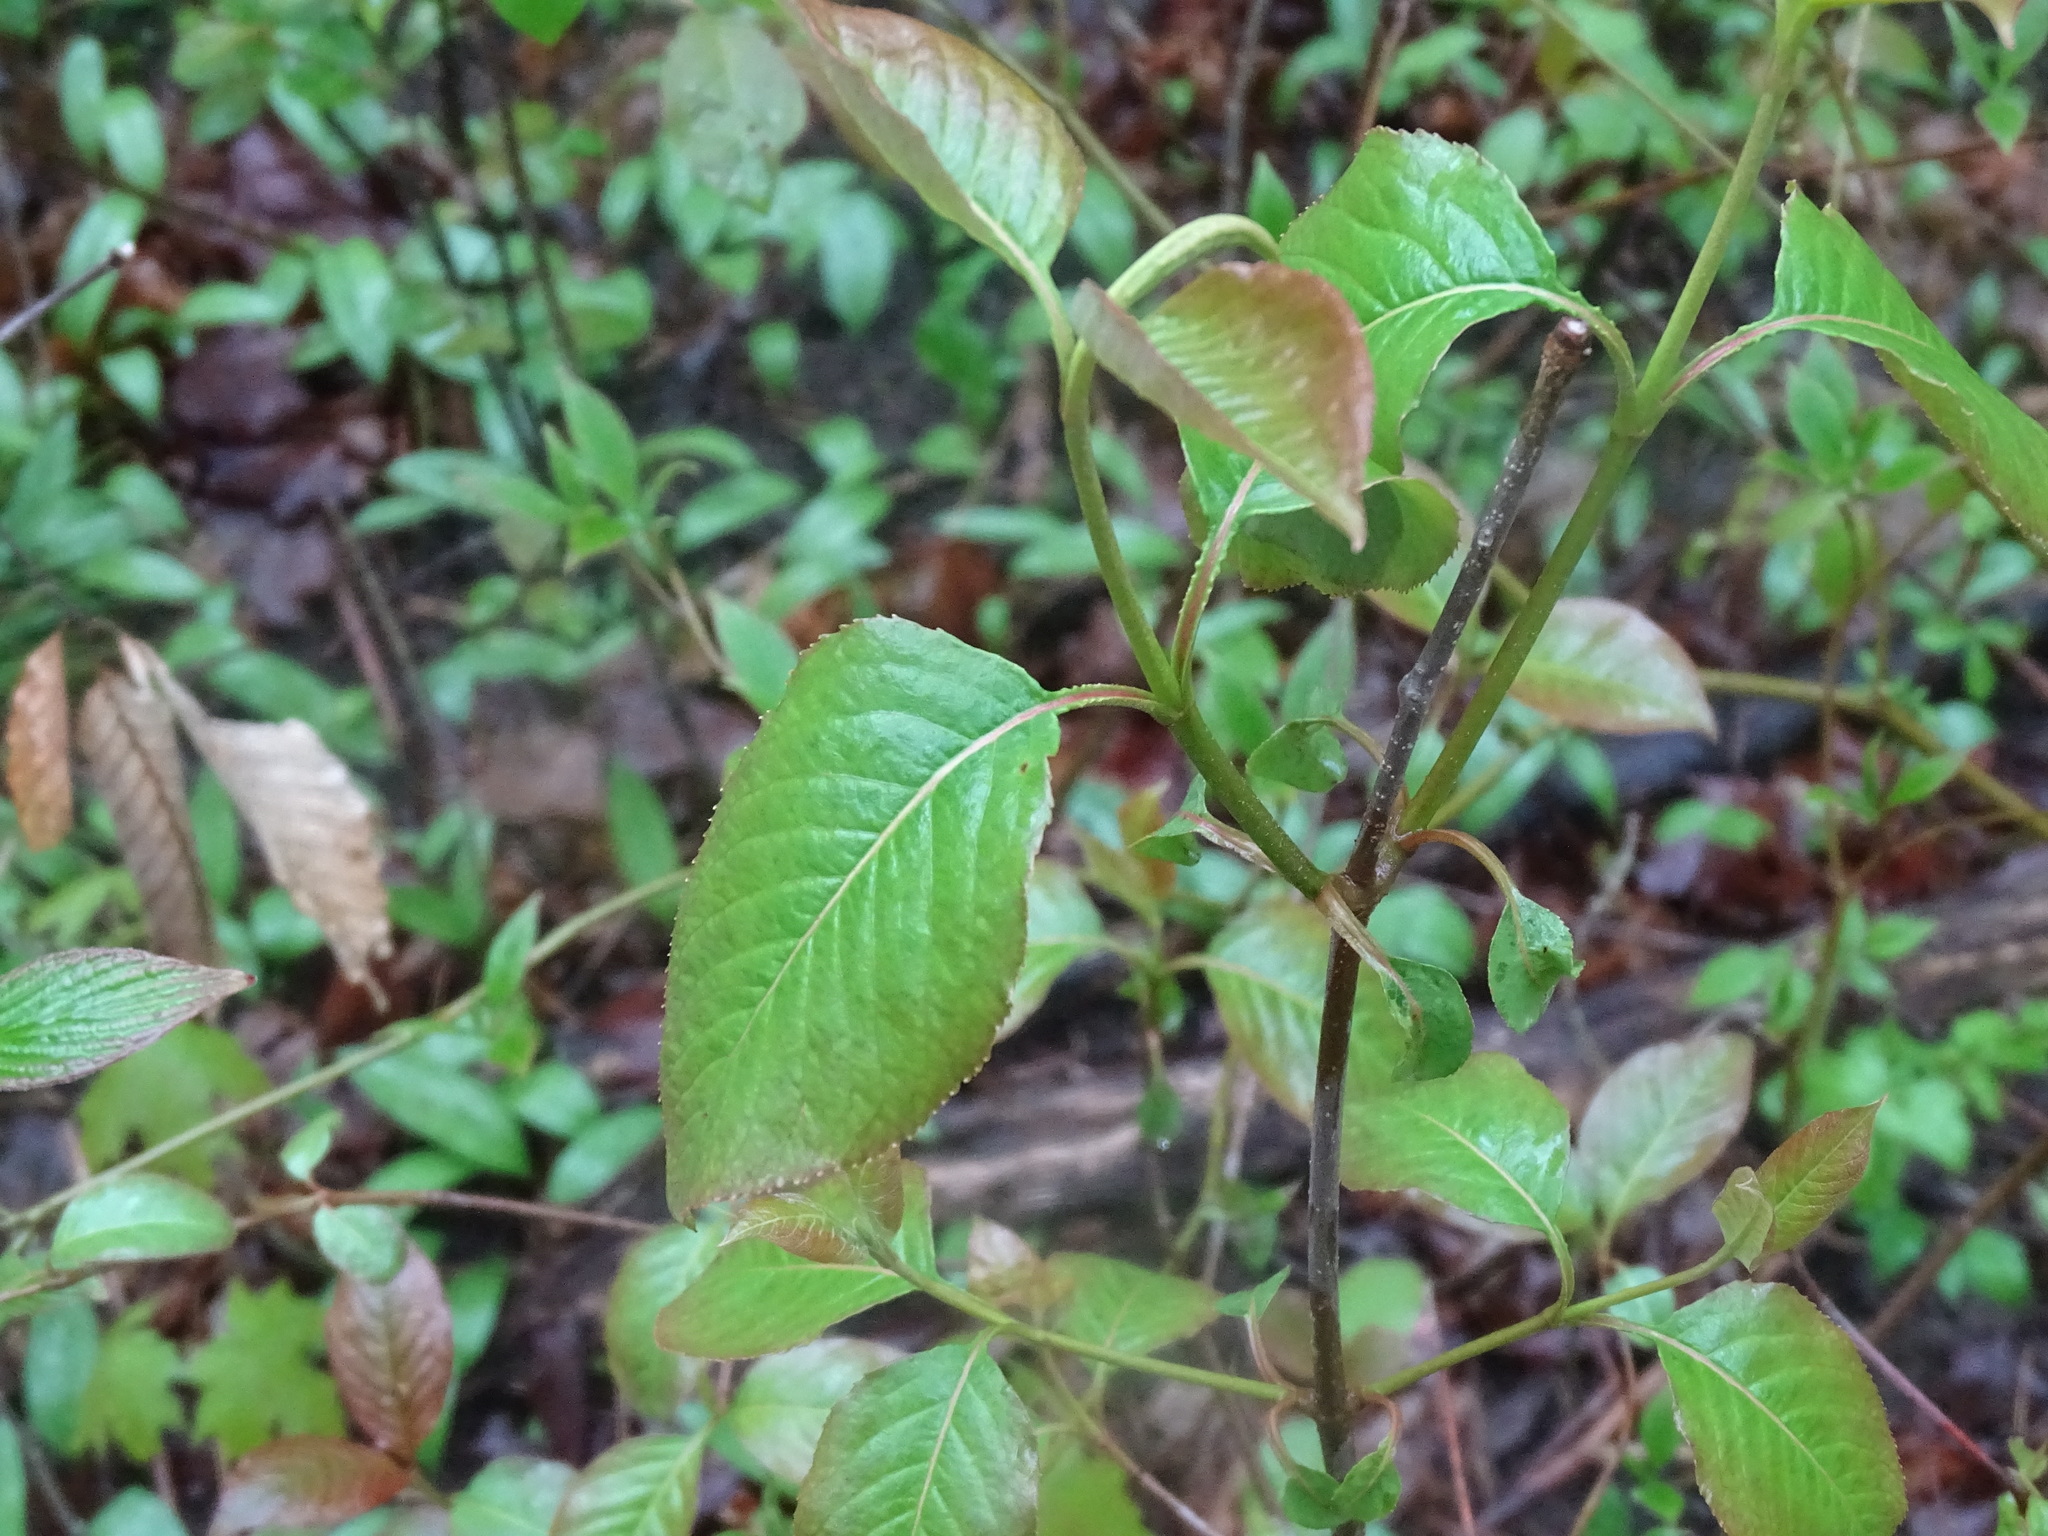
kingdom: Plantae
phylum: Tracheophyta
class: Magnoliopsida
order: Dipsacales
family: Viburnaceae
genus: Viburnum
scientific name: Viburnum lentago
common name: Black haw
